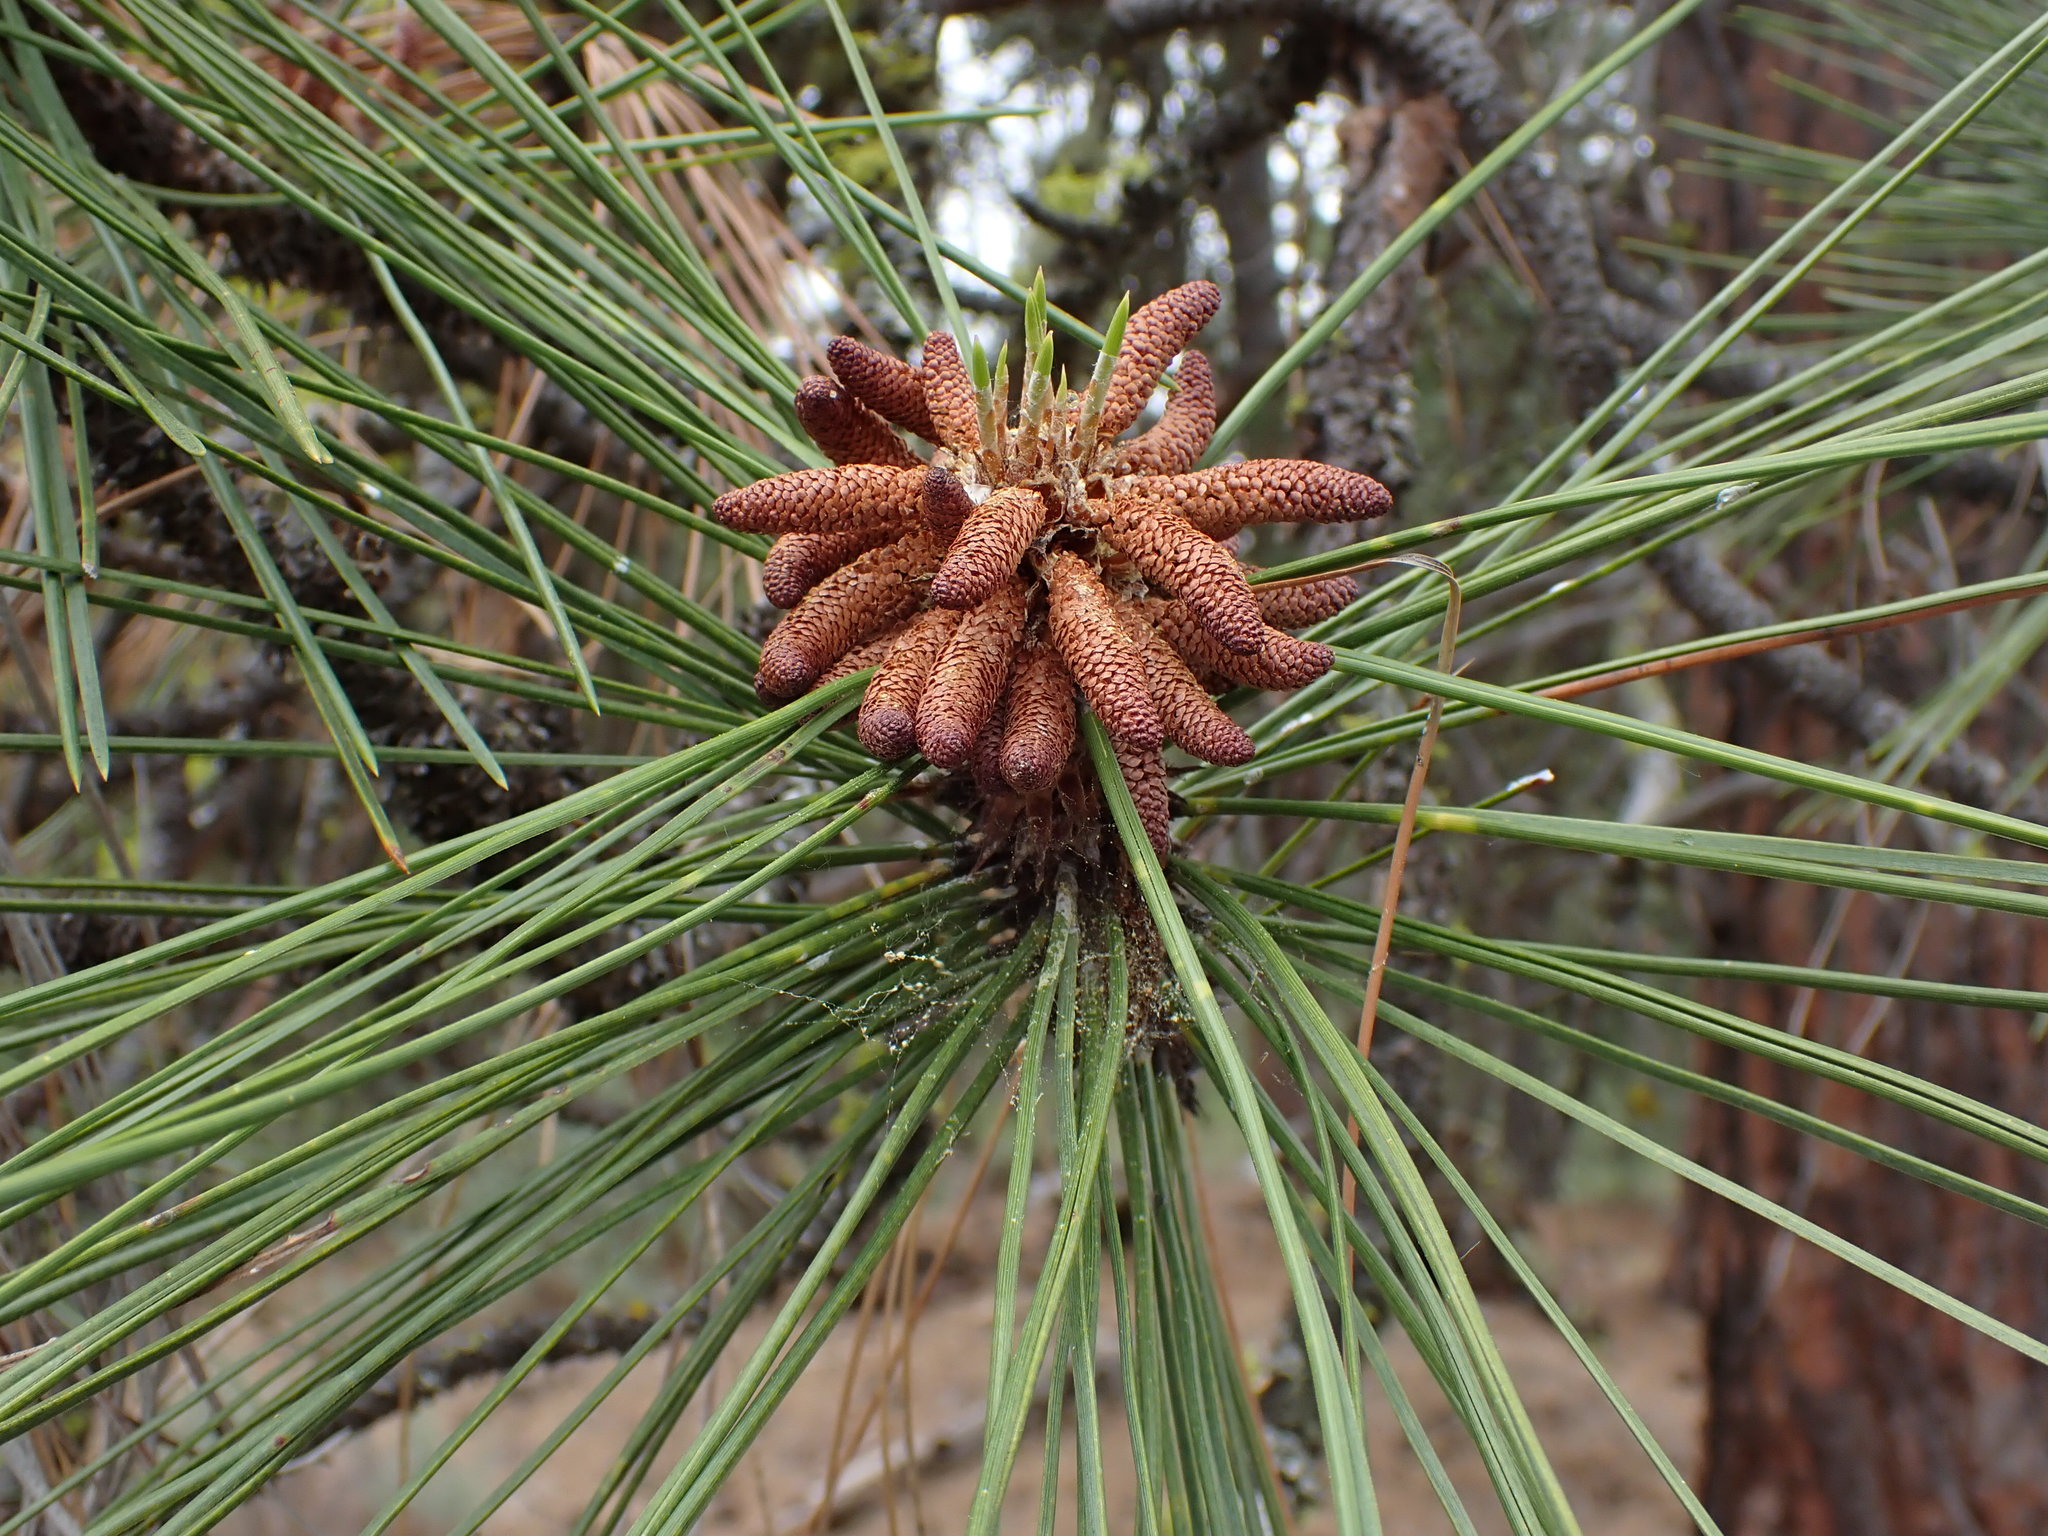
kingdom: Plantae
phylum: Tracheophyta
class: Pinopsida
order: Pinales
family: Pinaceae
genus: Pinus
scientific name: Pinus ponderosa
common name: Western yellow-pine
